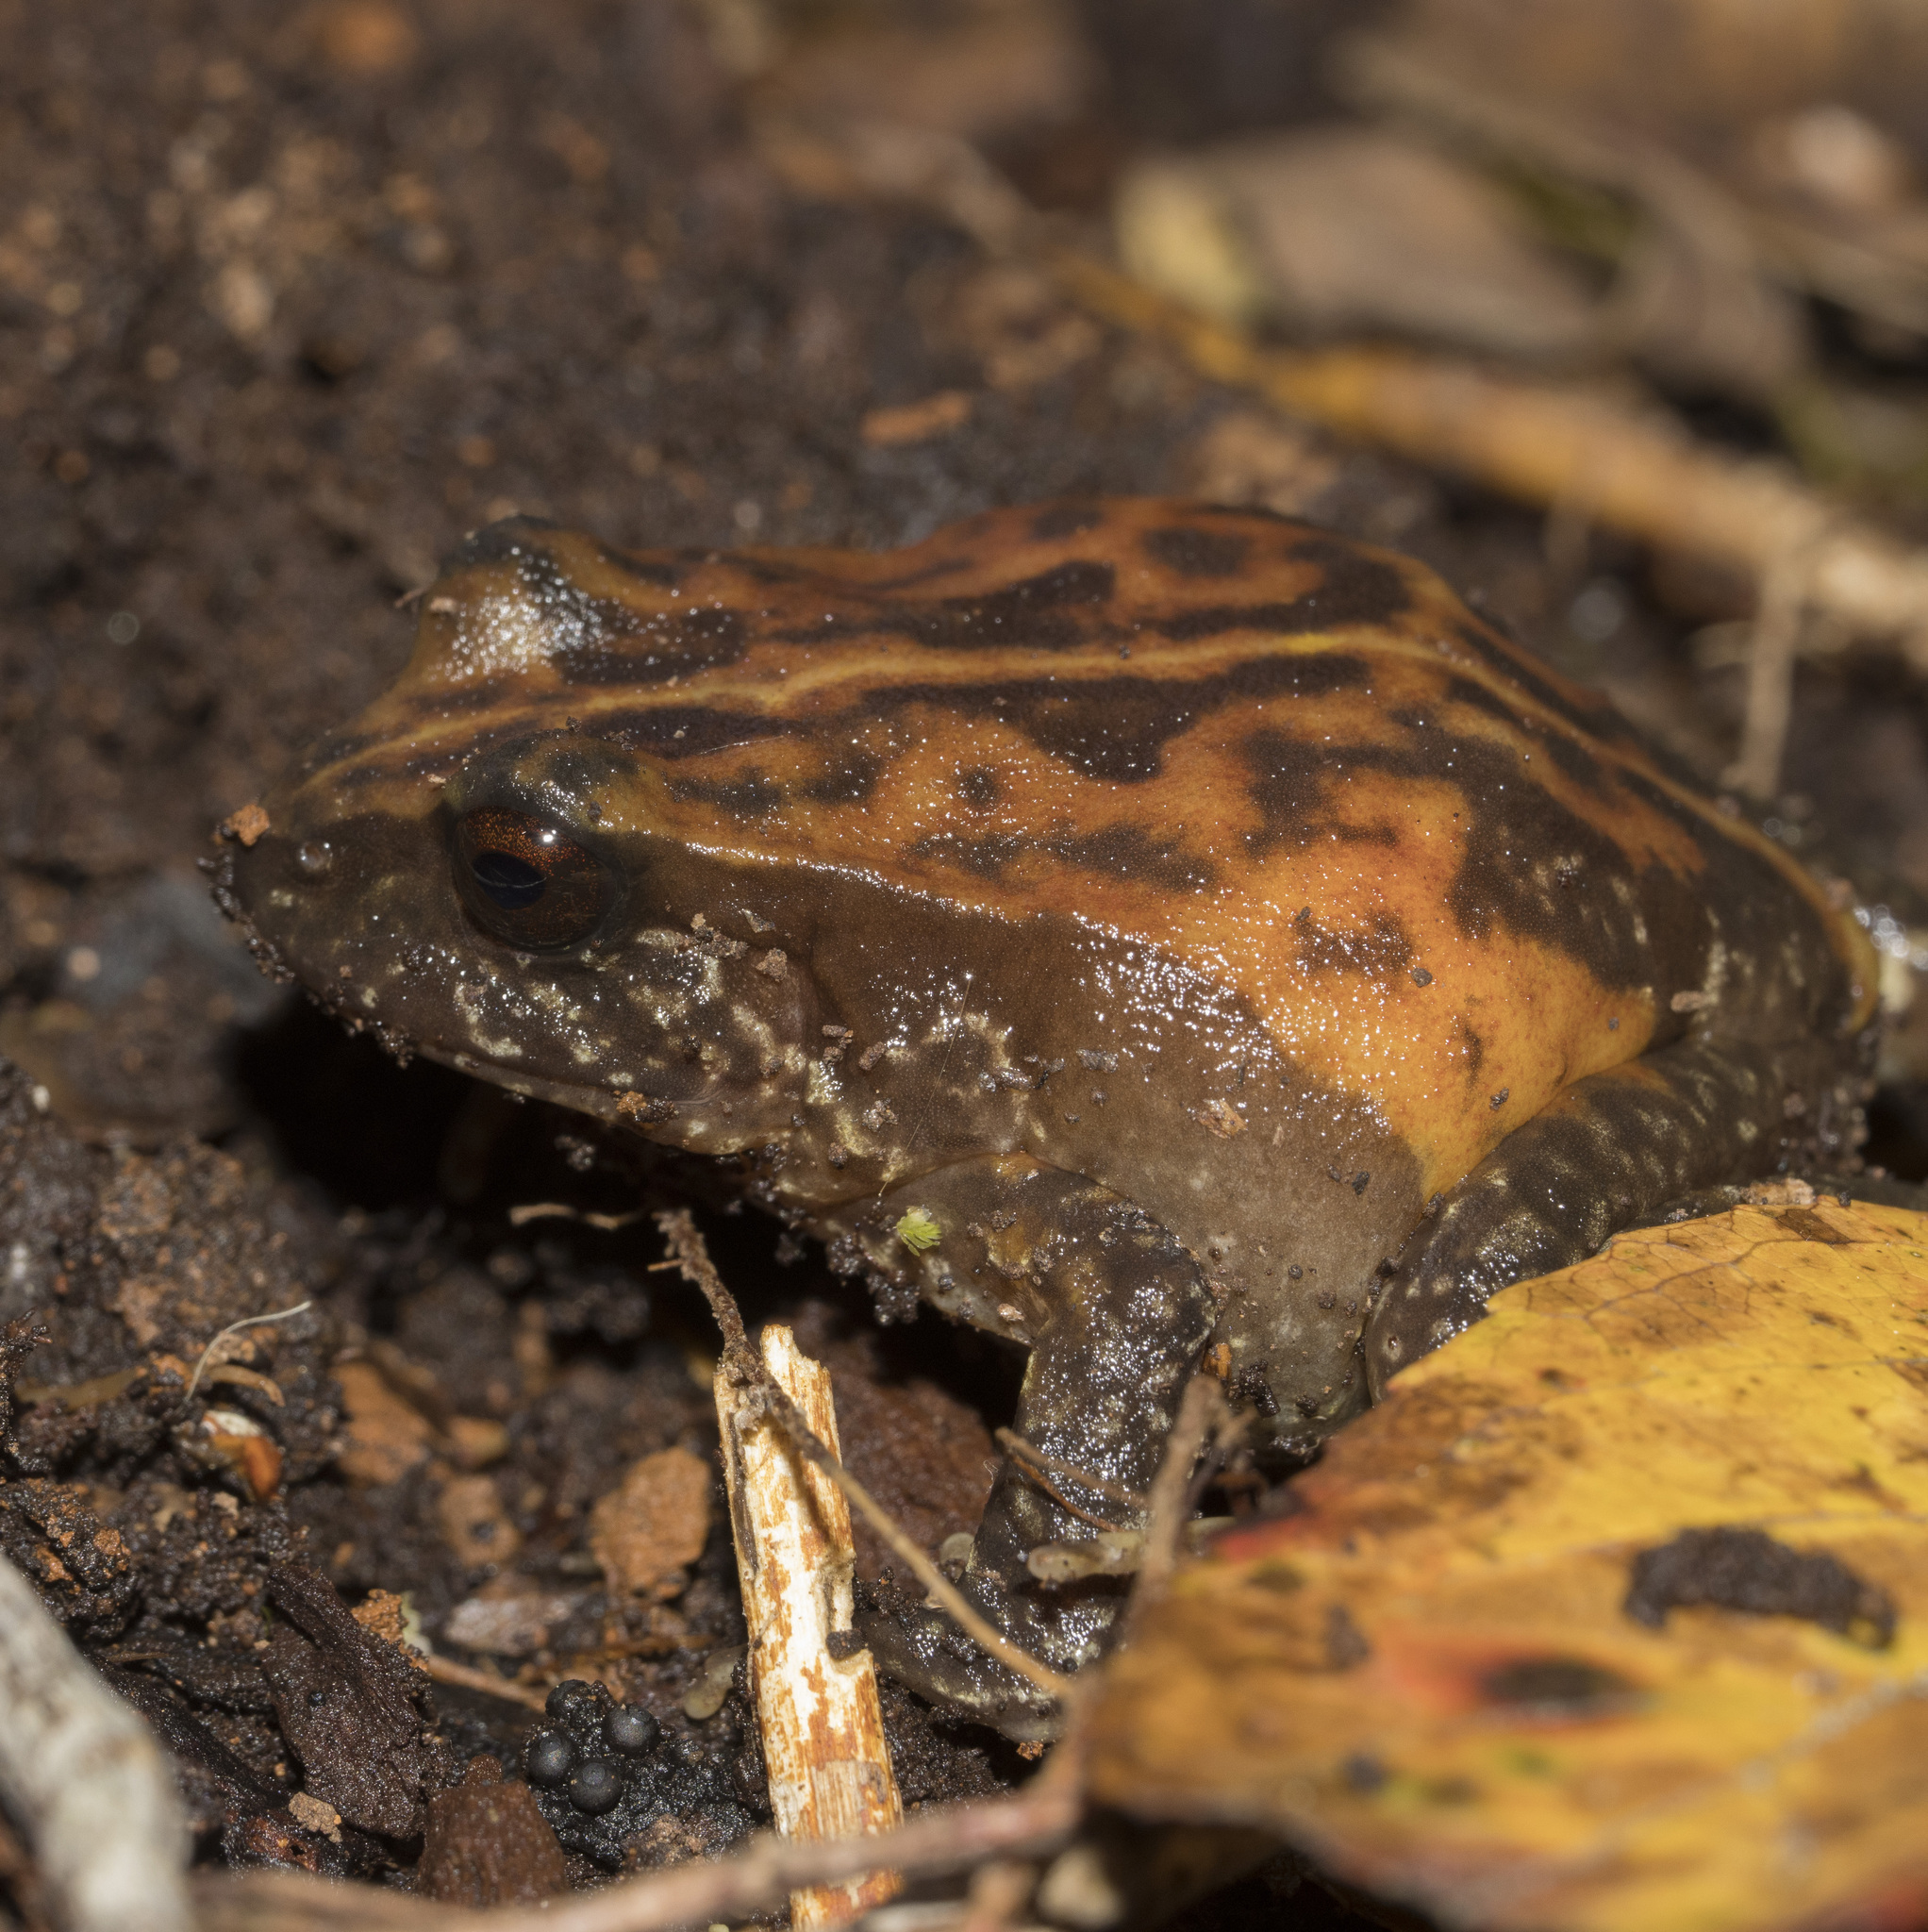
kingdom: Animalia
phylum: Chordata
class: Amphibia
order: Anura
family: Alsodidae
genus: Eupsophus
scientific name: Eupsophus roseus
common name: Rosy ground frog
